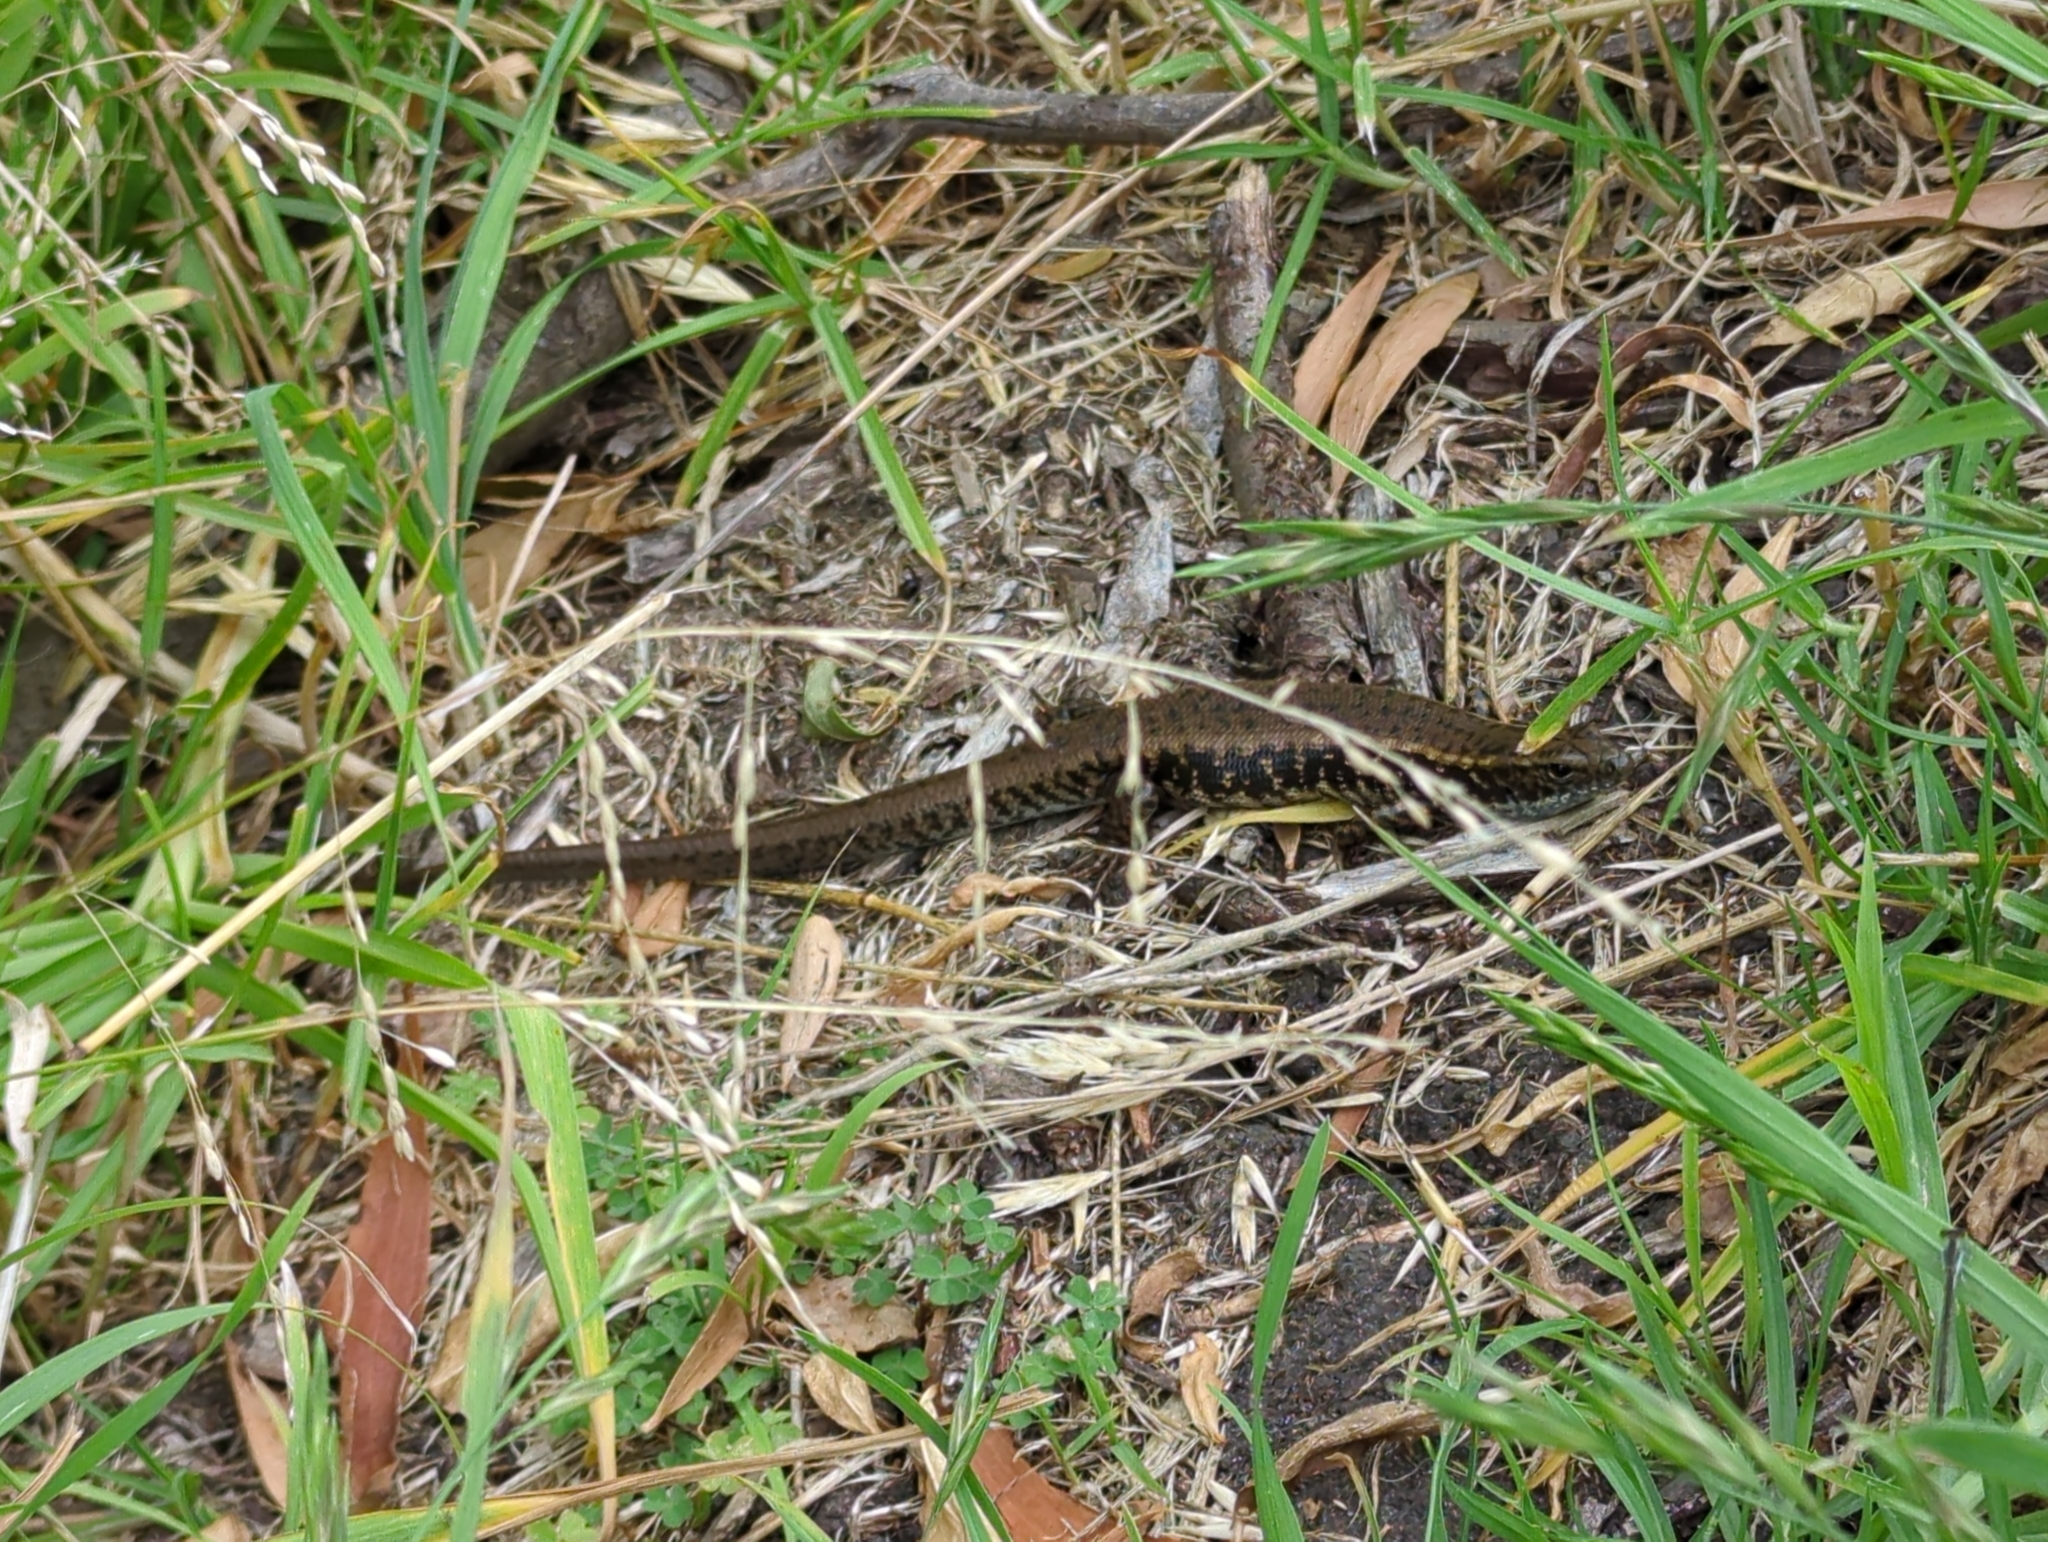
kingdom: Animalia
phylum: Chordata
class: Squamata
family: Scincidae
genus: Eulamprus
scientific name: Eulamprus quoyii
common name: Eastern water skink
